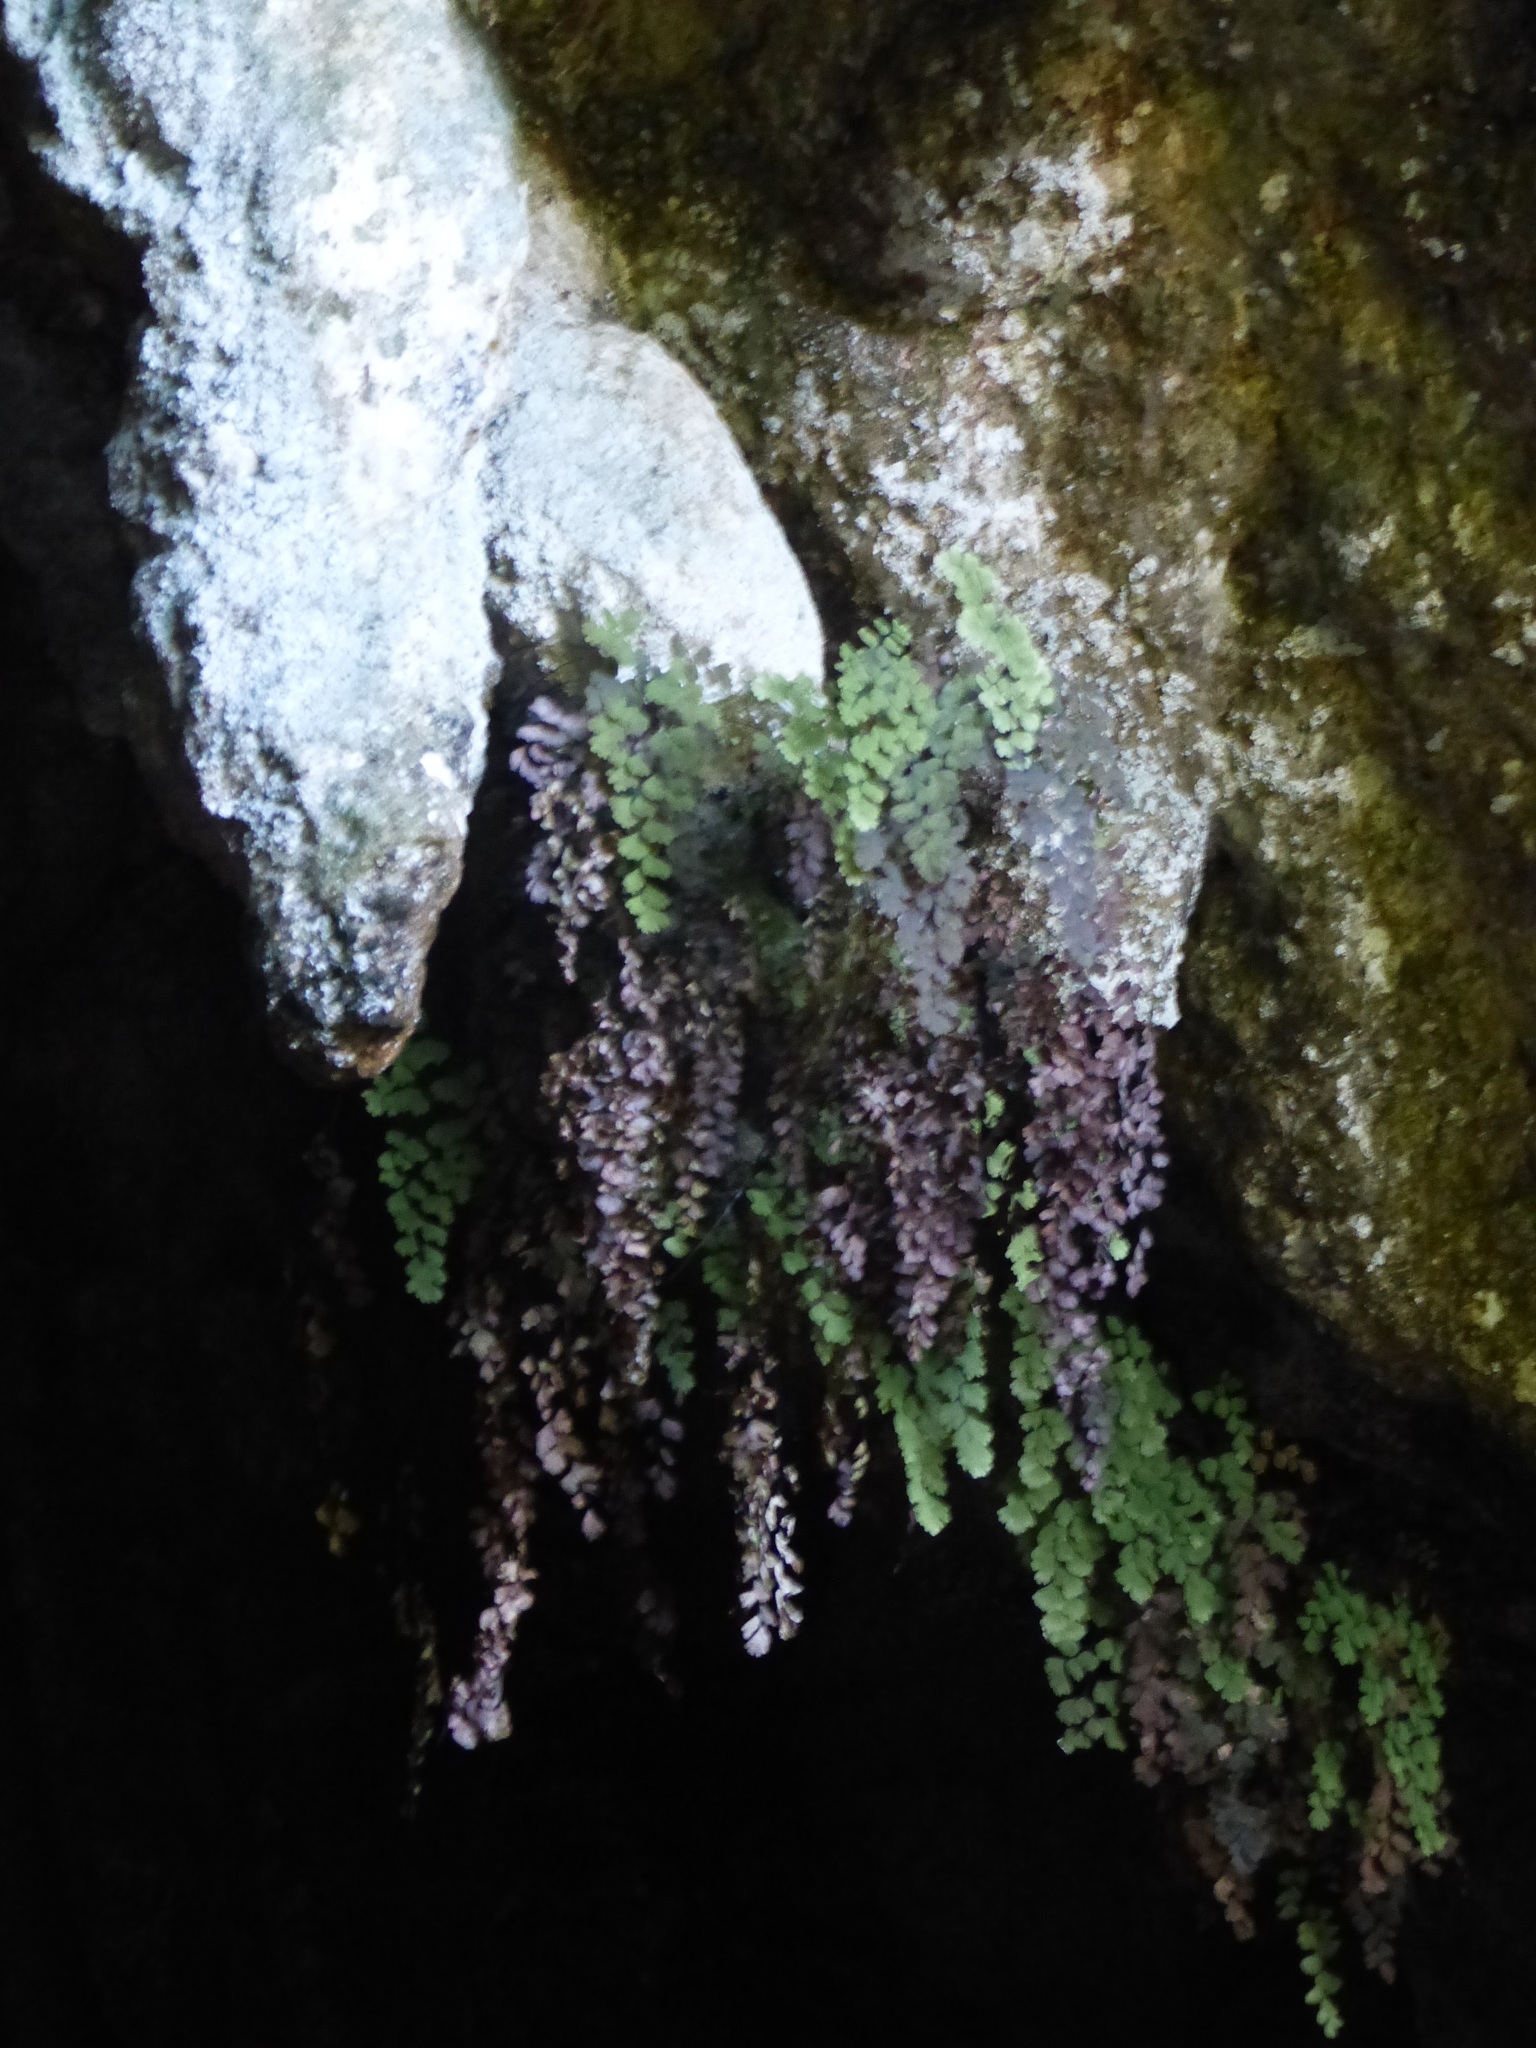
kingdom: Plantae
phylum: Tracheophyta
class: Polypodiopsida
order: Polypodiales
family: Pteridaceae
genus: Adiantum
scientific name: Adiantum capillus-veneris
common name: Maidenhair fern
